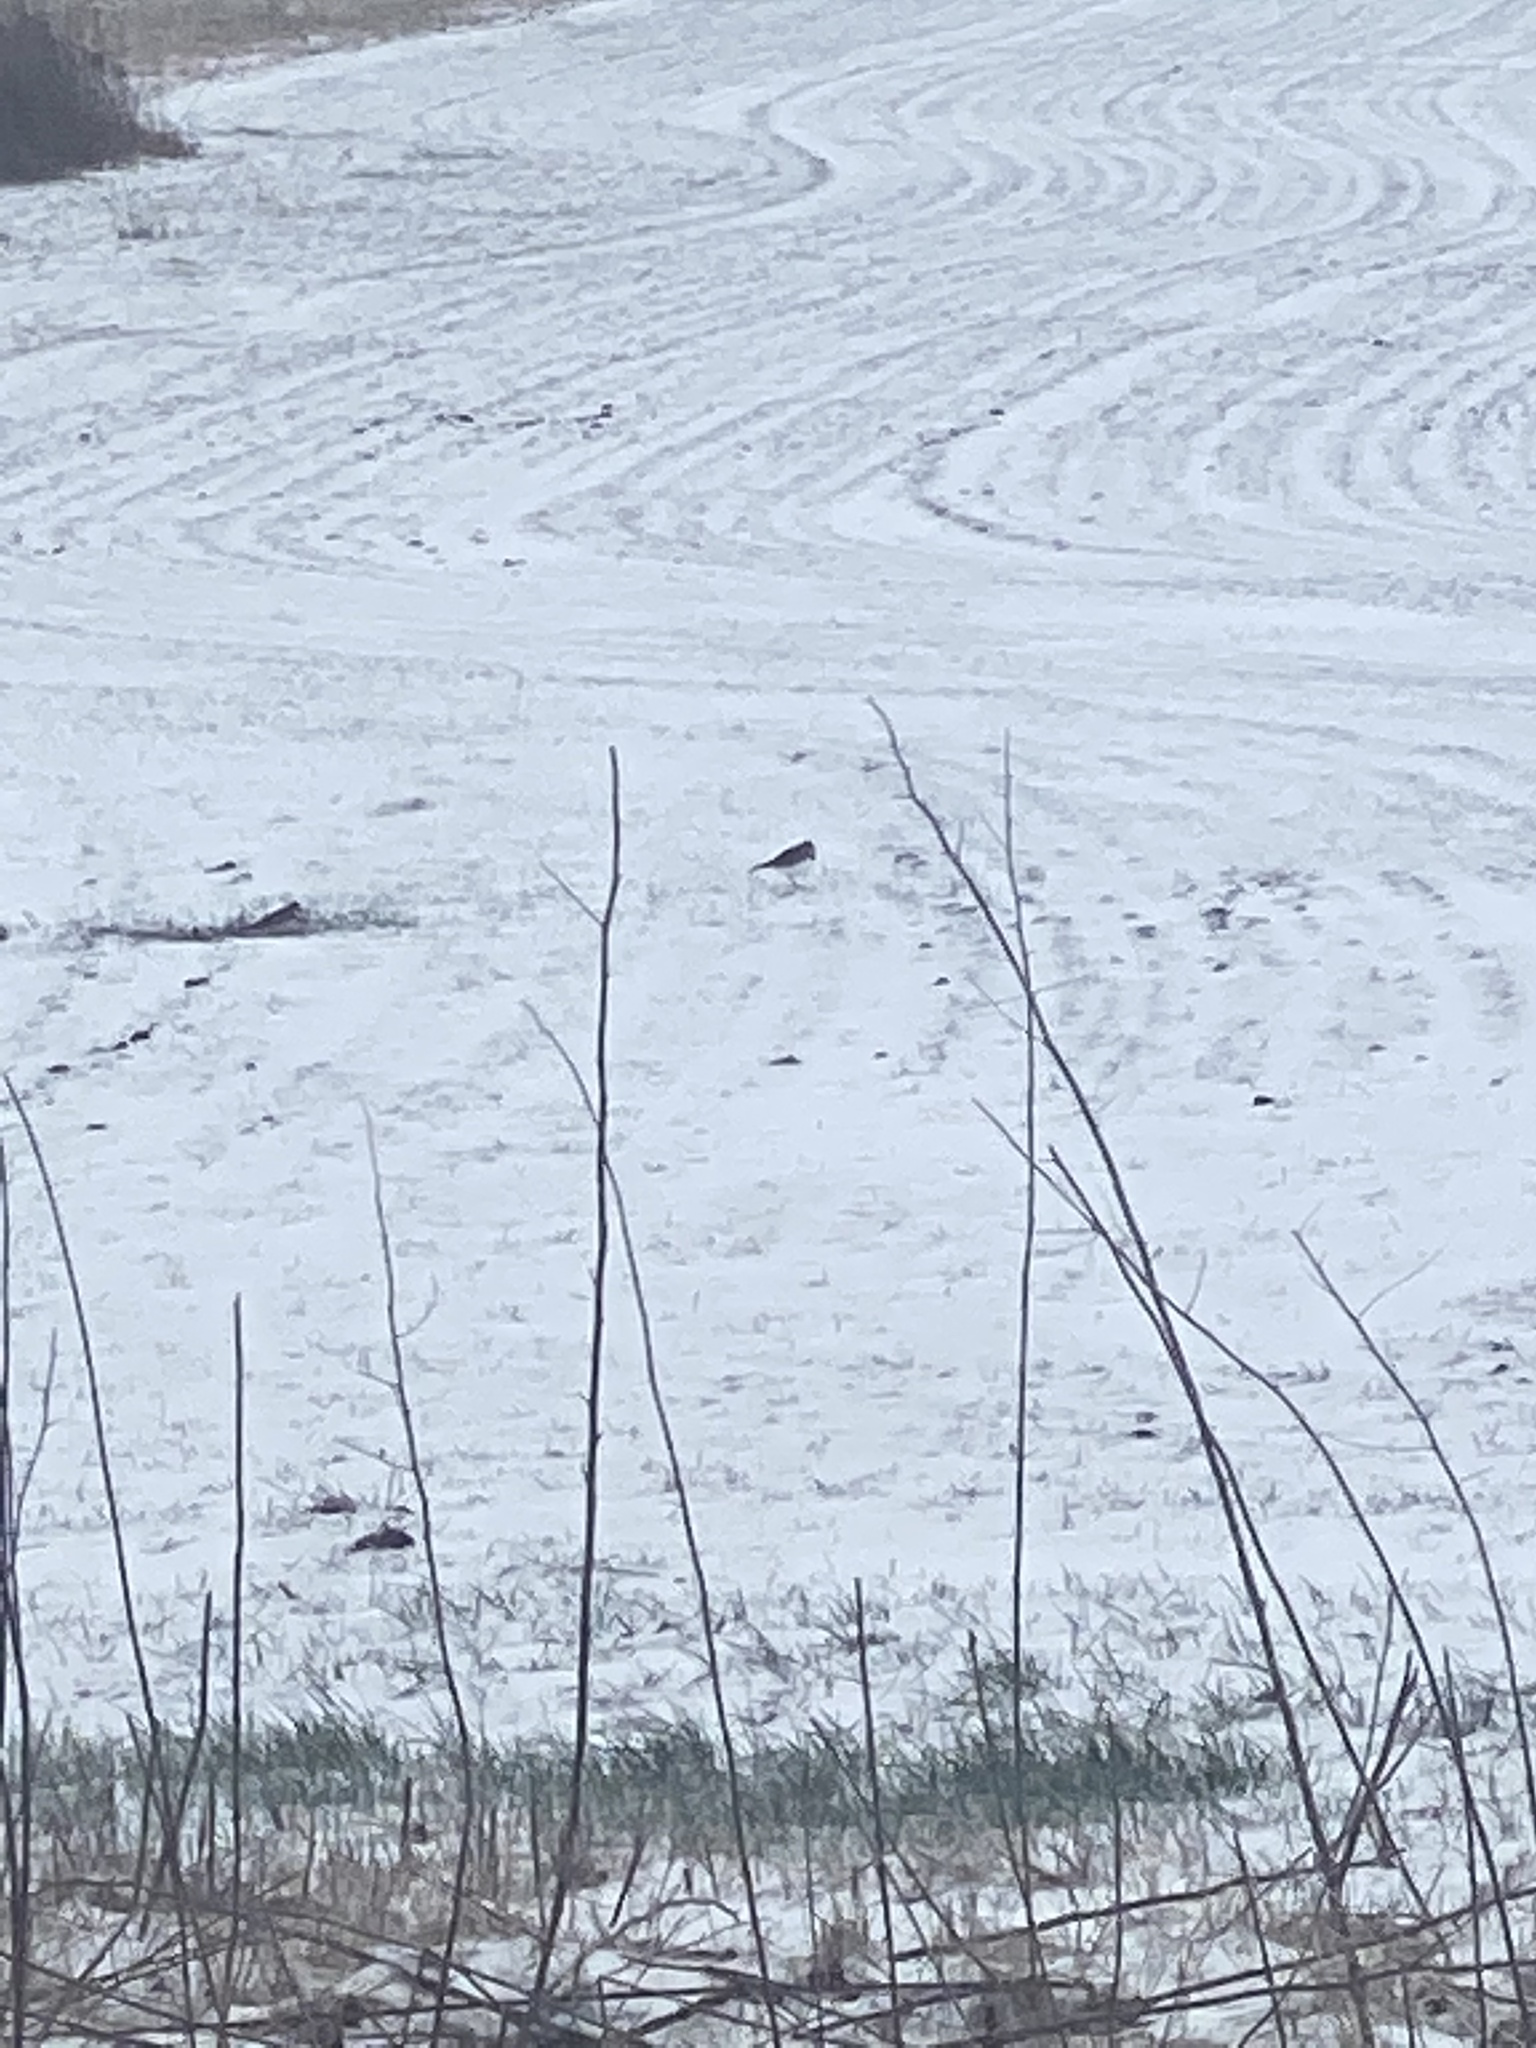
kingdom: Animalia
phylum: Chordata
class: Aves
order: Charadriiformes
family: Charadriidae
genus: Charadrius
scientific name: Charadrius vociferus
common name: Killdeer
